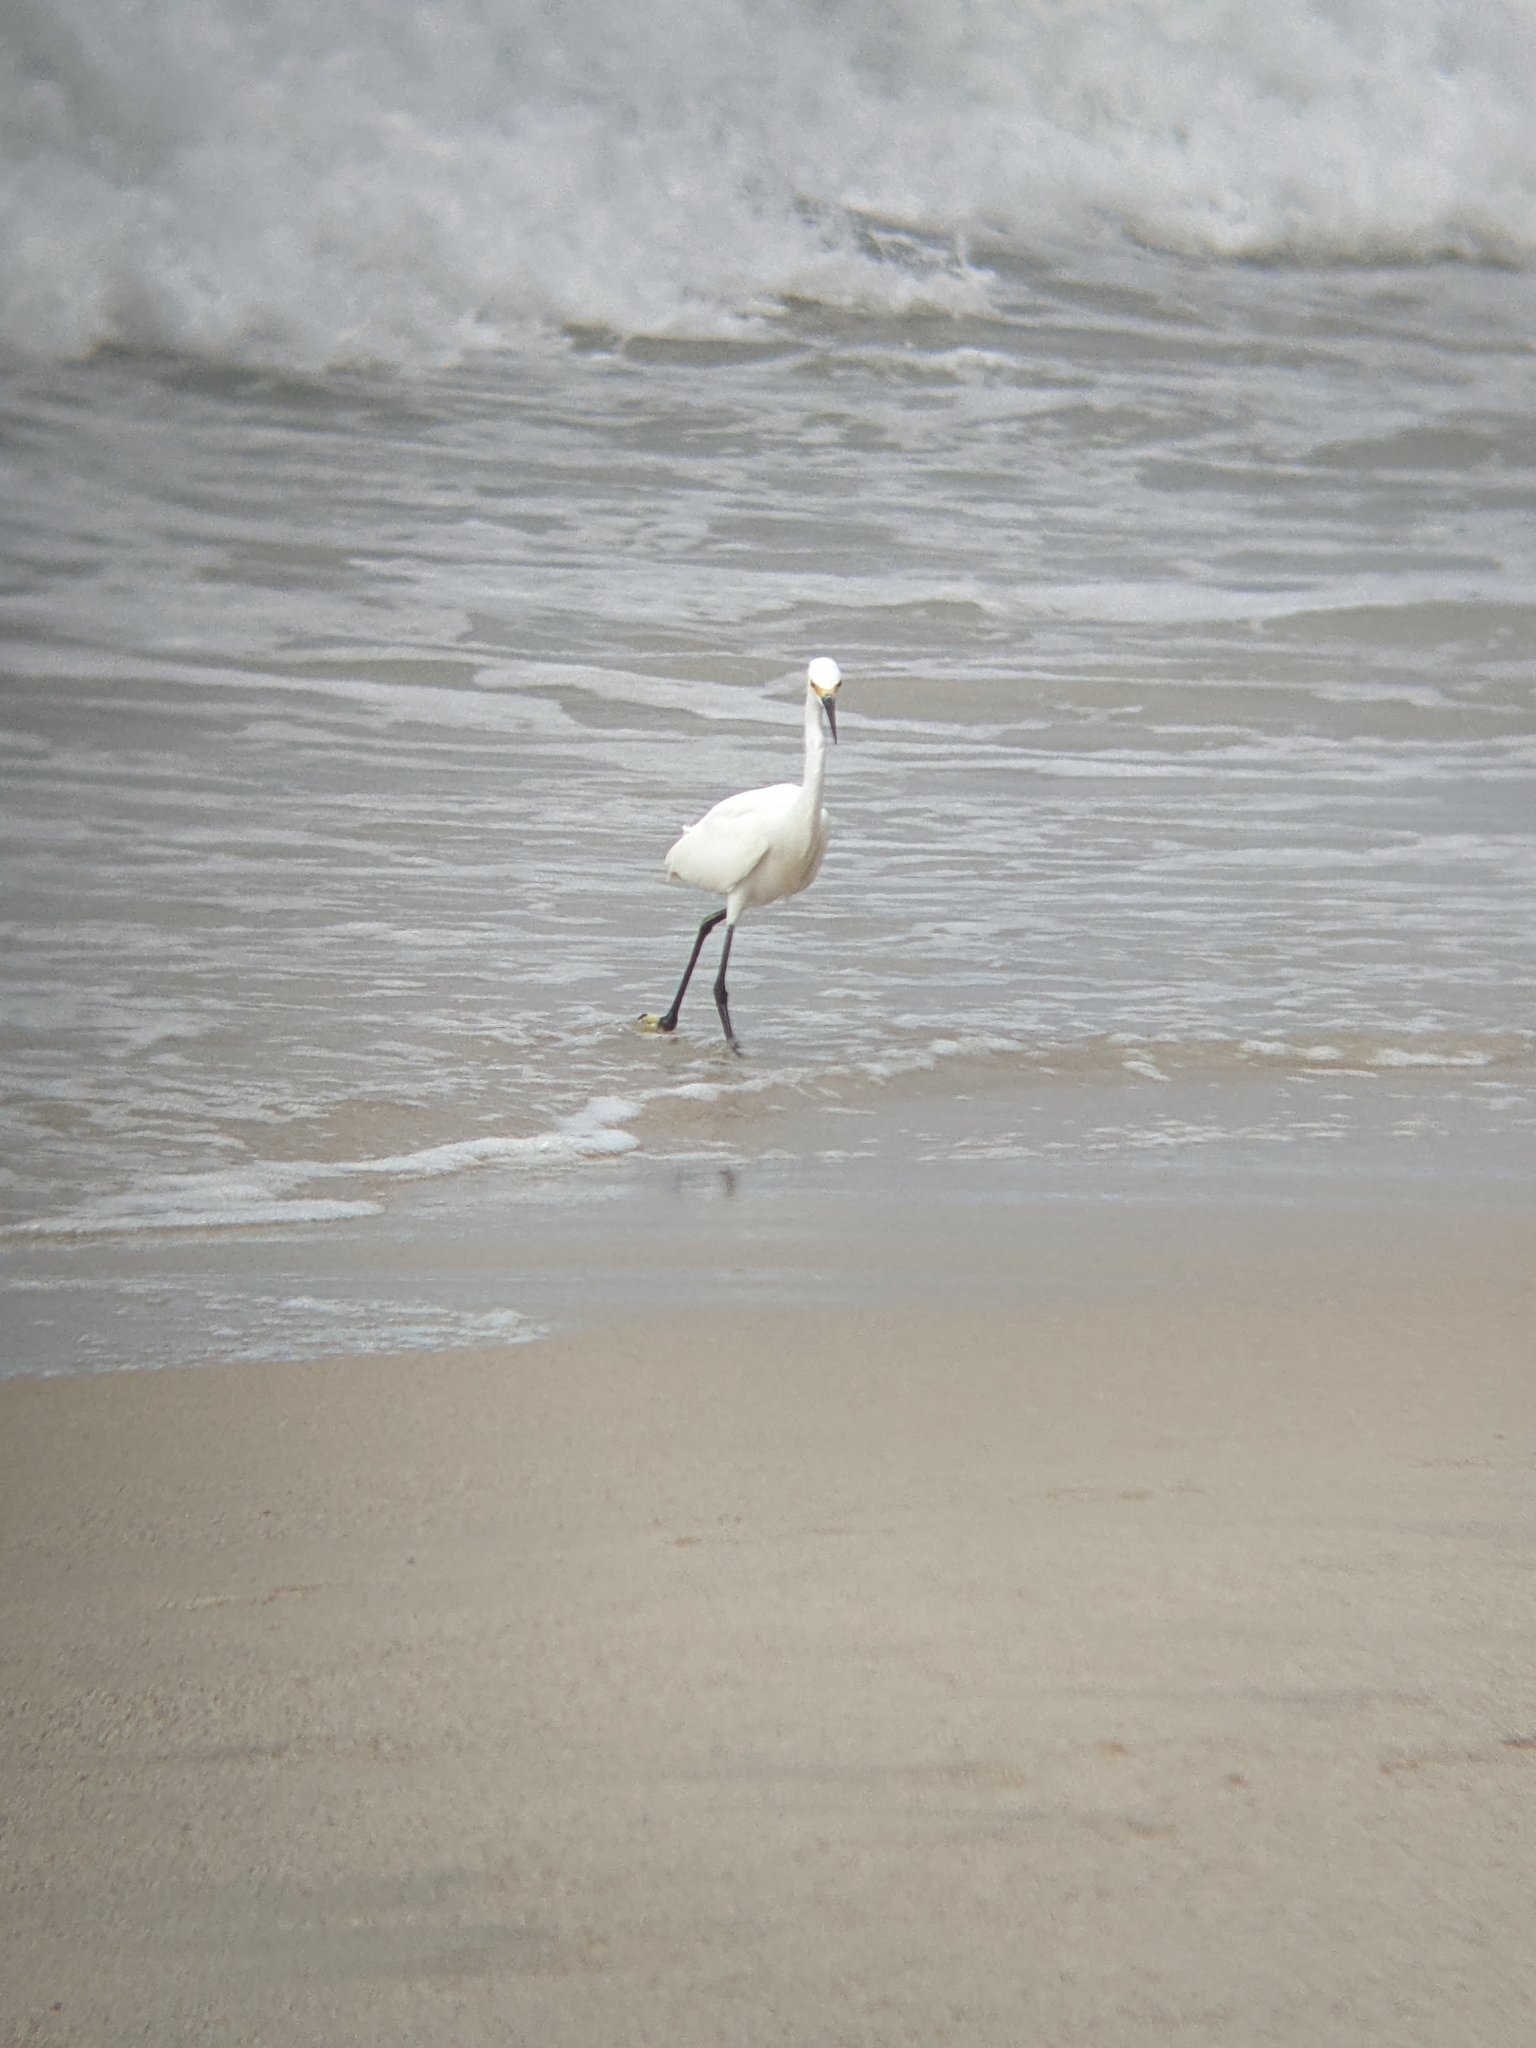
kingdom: Animalia
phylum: Chordata
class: Aves
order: Pelecaniformes
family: Ardeidae
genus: Egretta
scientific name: Egretta thula
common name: Snowy egret
